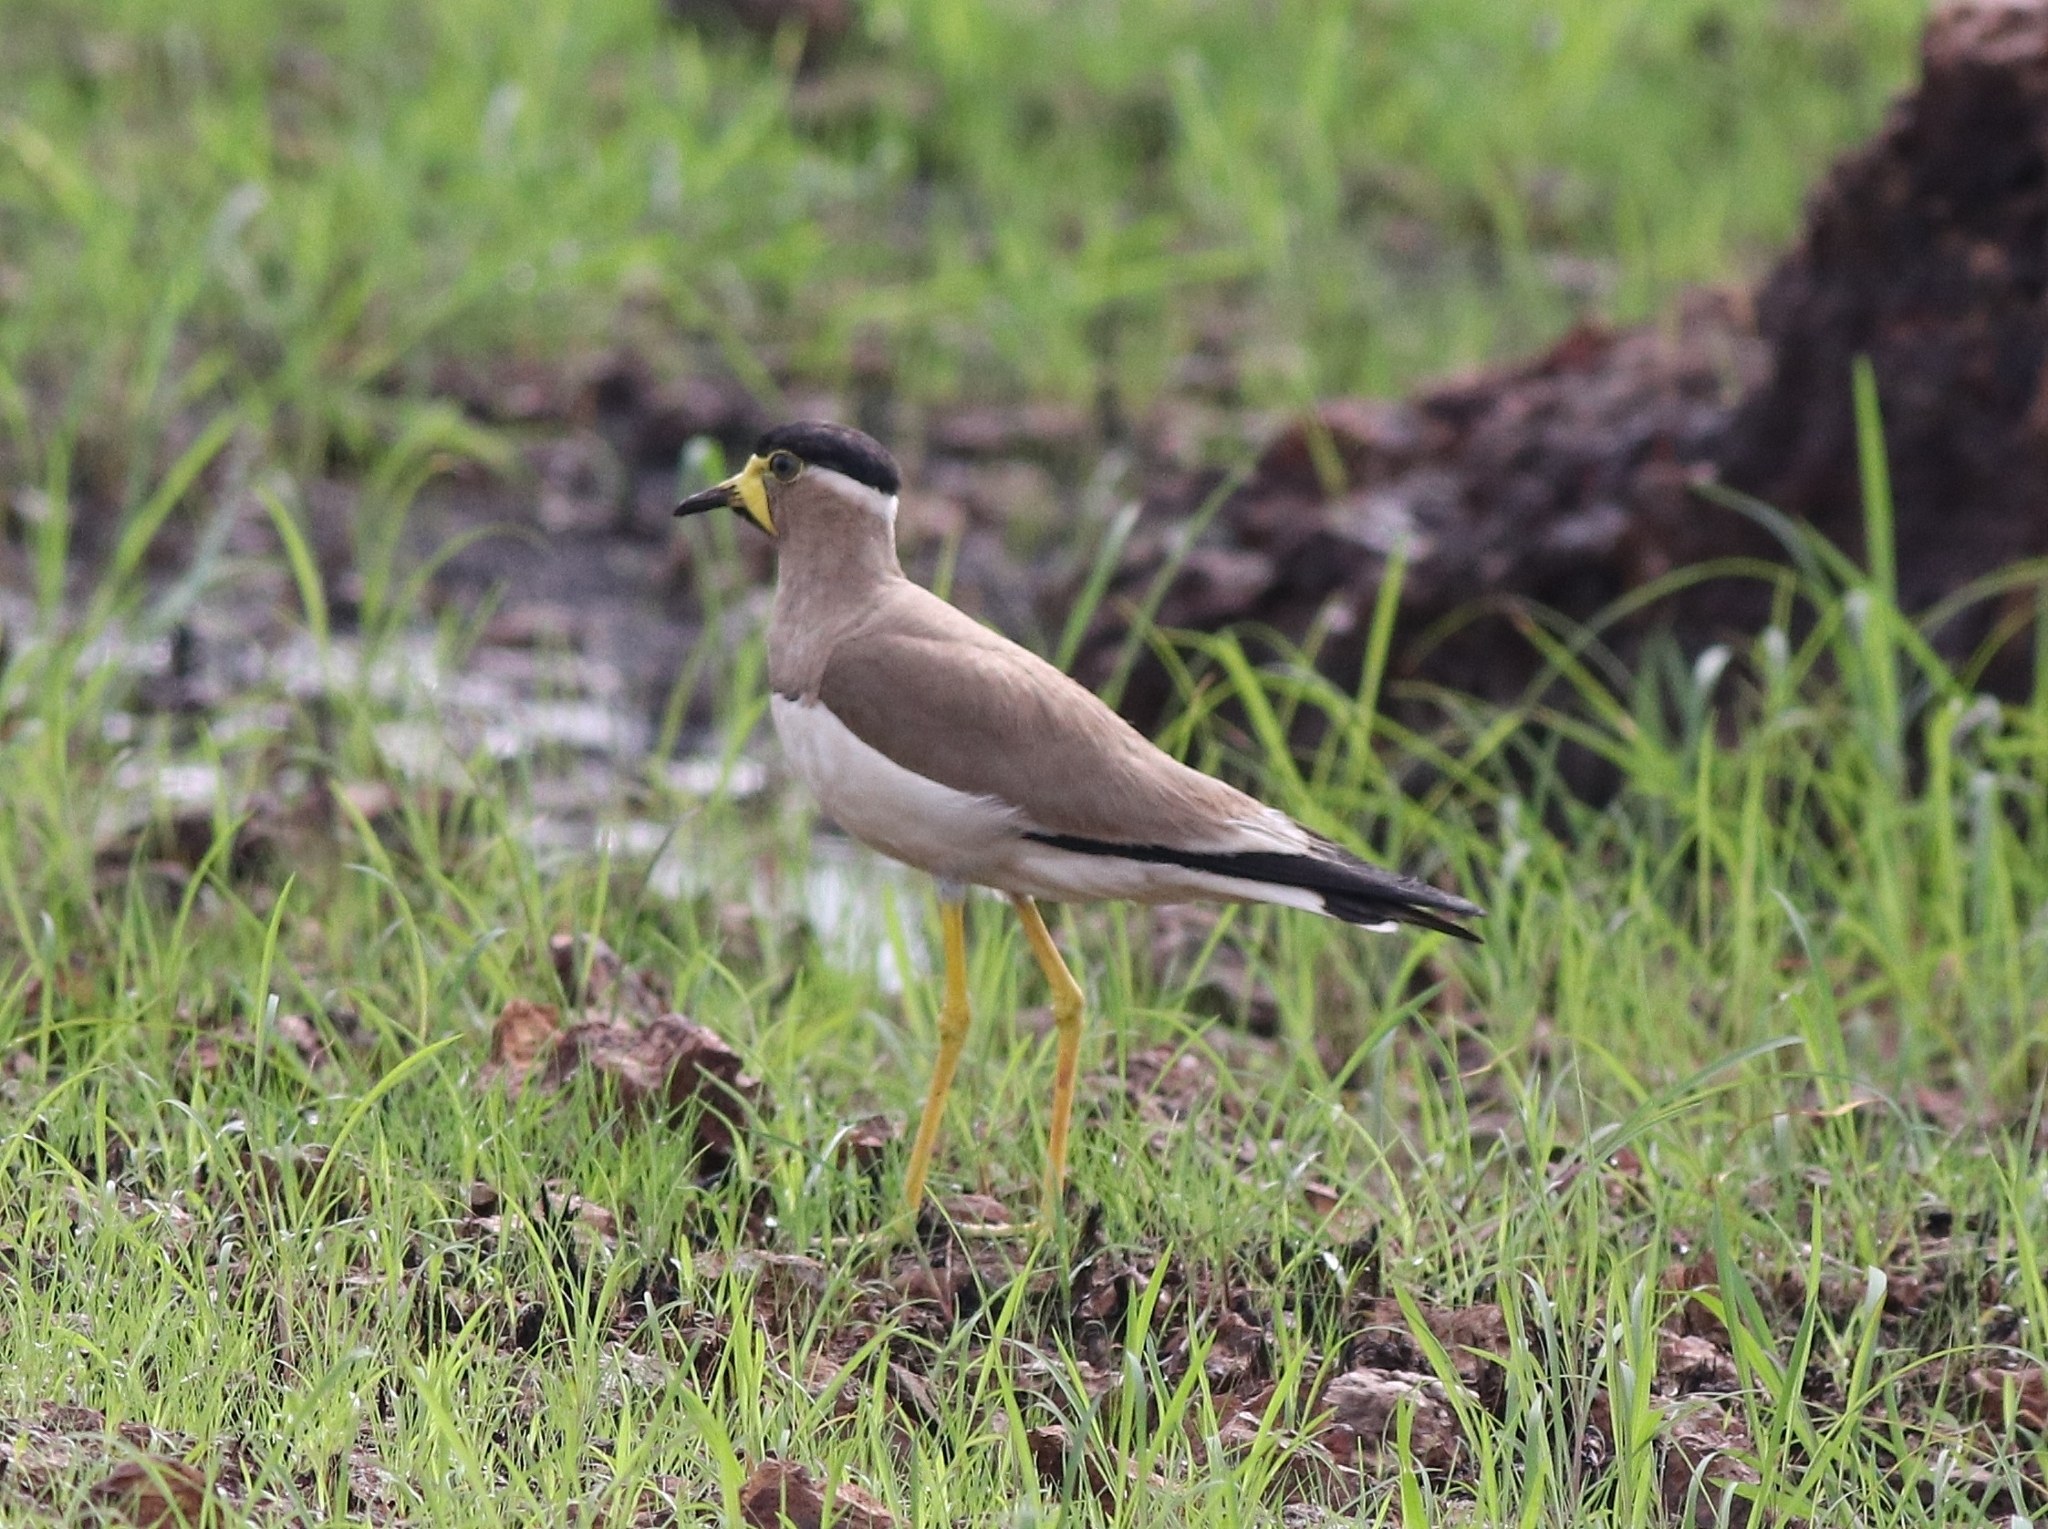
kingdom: Animalia
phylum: Chordata
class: Aves
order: Charadriiformes
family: Charadriidae
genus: Vanellus
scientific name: Vanellus malabaricus
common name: Yellow-wattled lapwing
